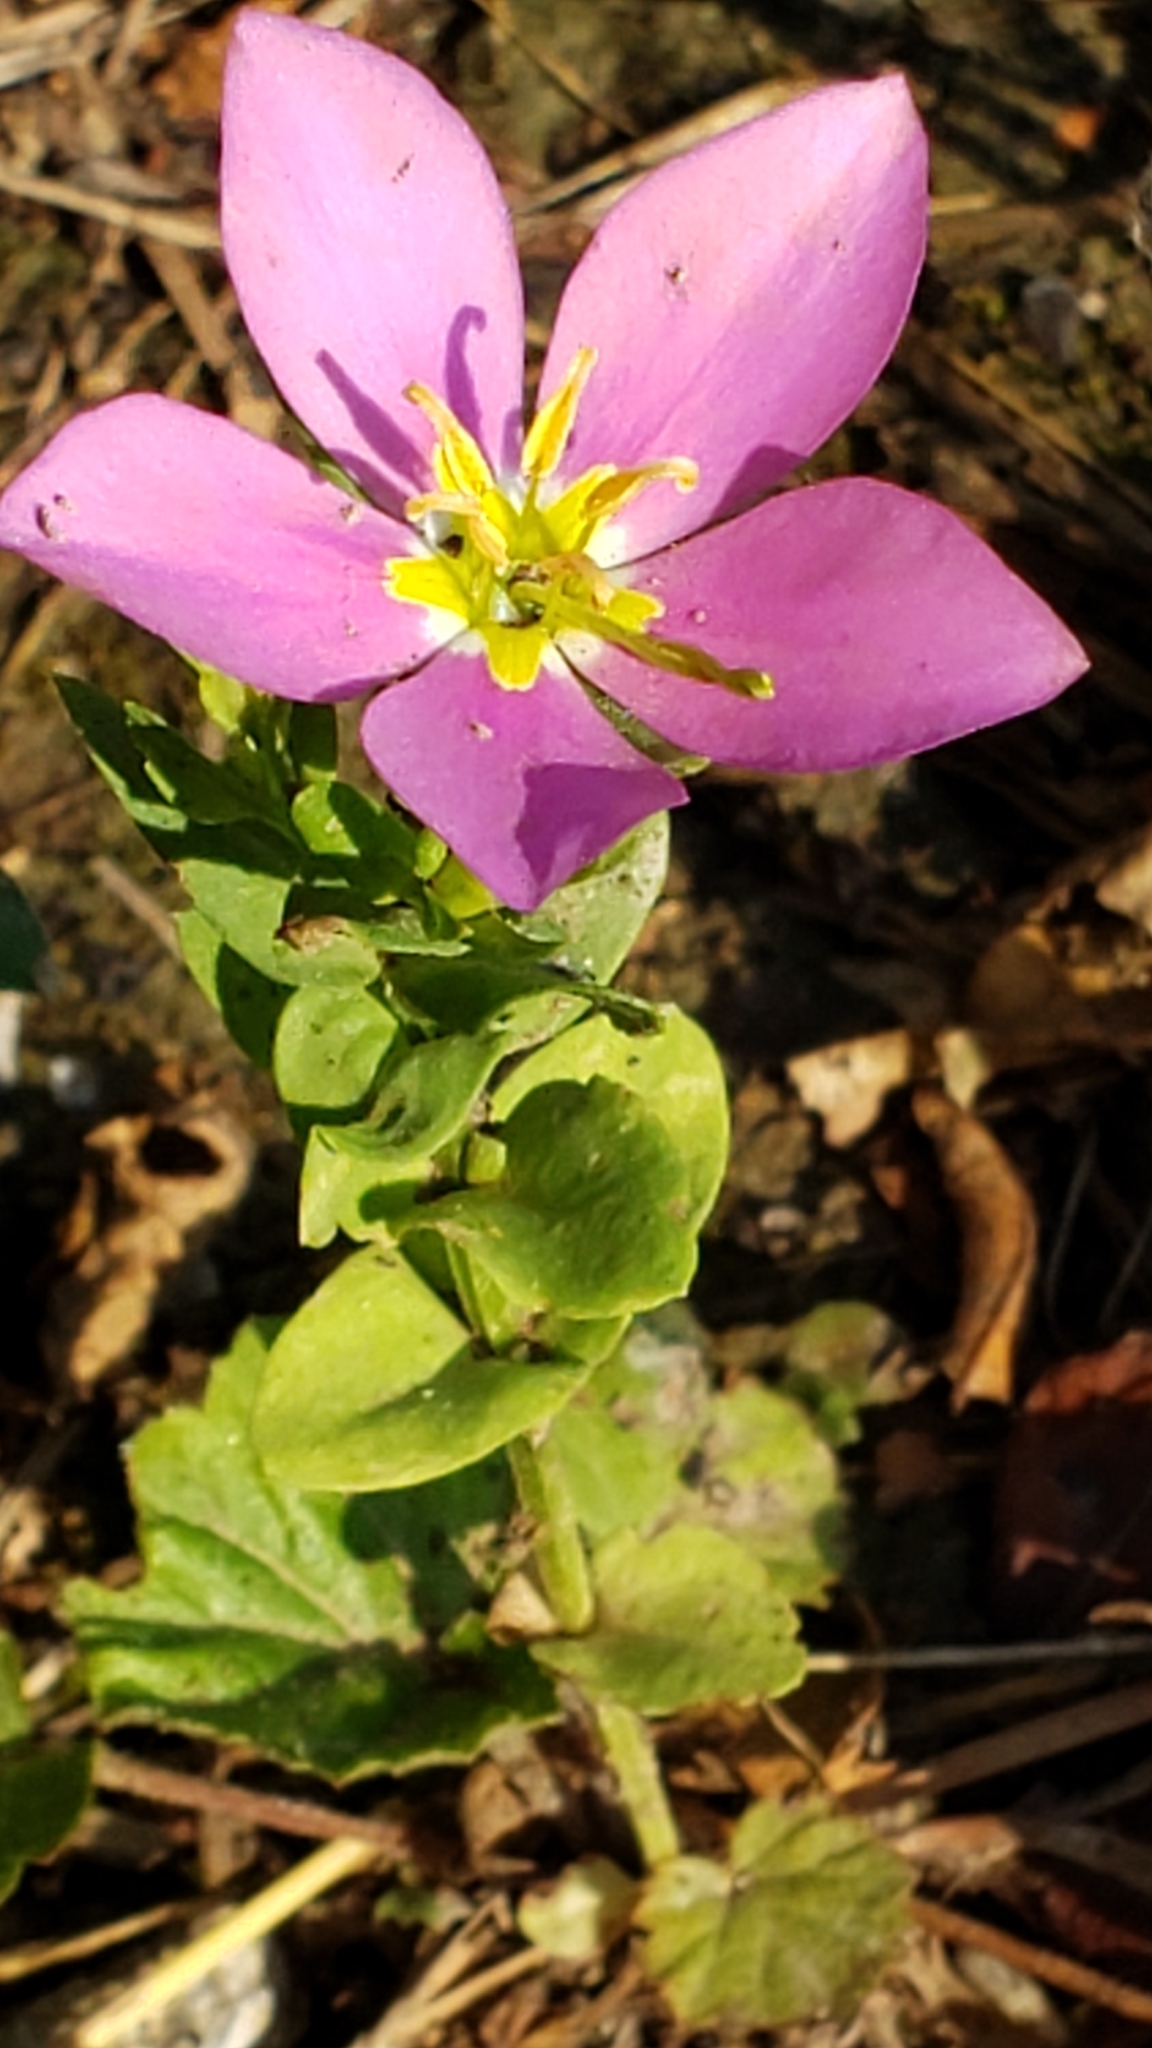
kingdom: Plantae
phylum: Tracheophyta
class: Magnoliopsida
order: Gentianales
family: Gentianaceae
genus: Sabatia
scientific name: Sabatia campestris
